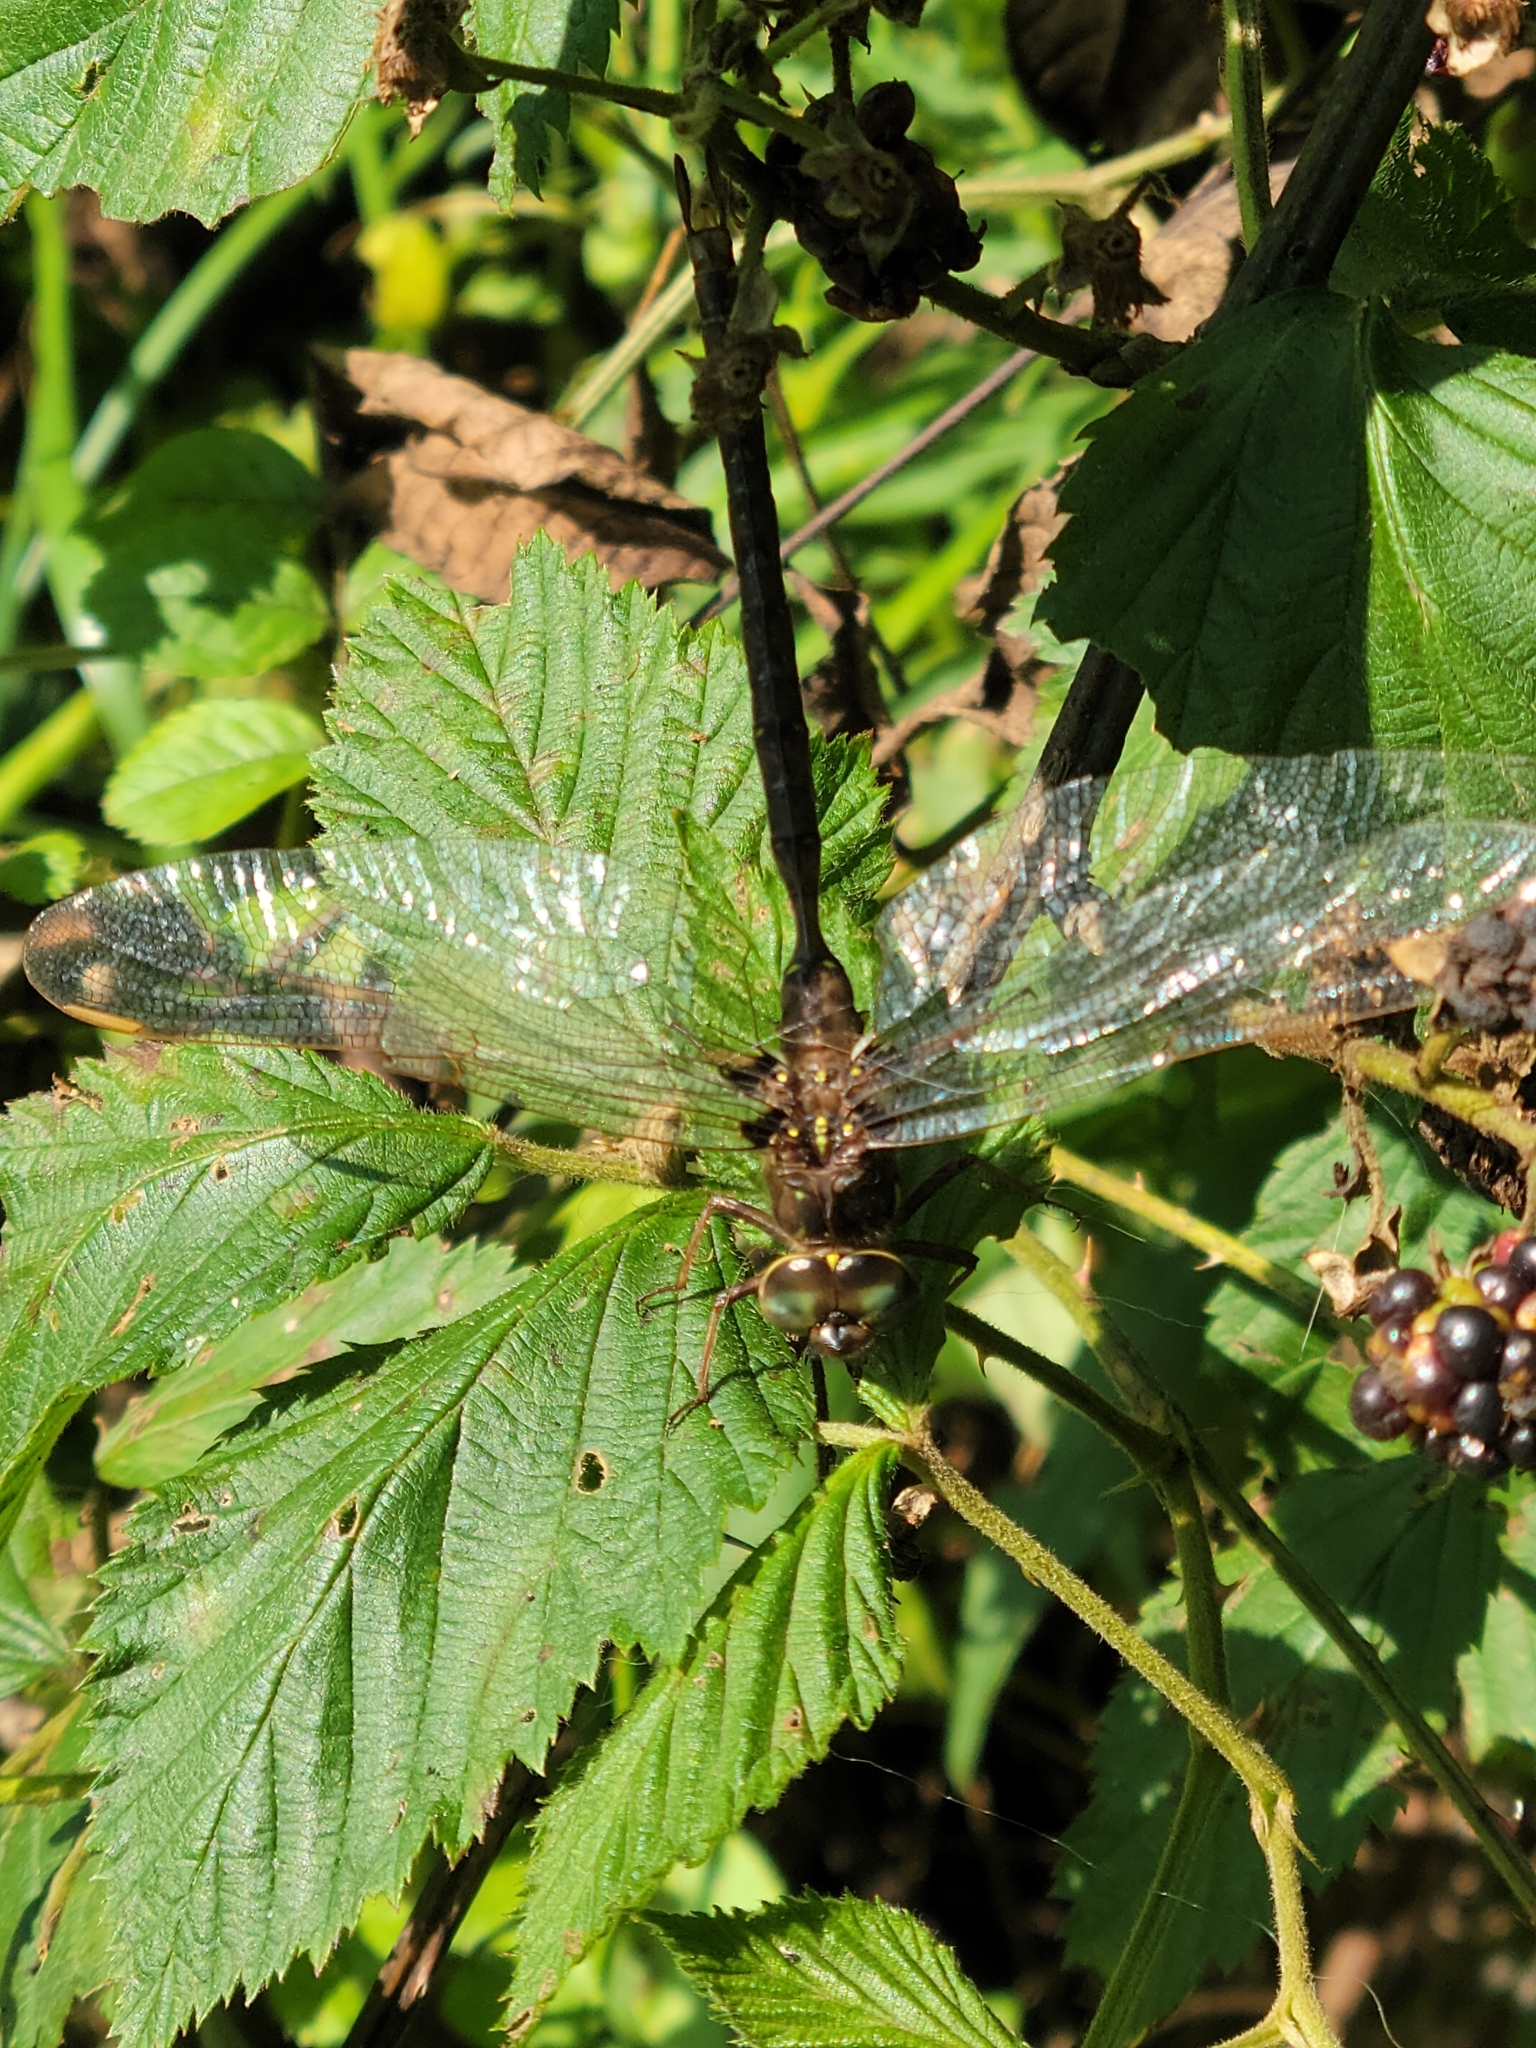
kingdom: Animalia
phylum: Arthropoda
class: Insecta
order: Odonata
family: Aeshnidae
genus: Boyeria
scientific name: Boyeria vinosa
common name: Fawn darner
